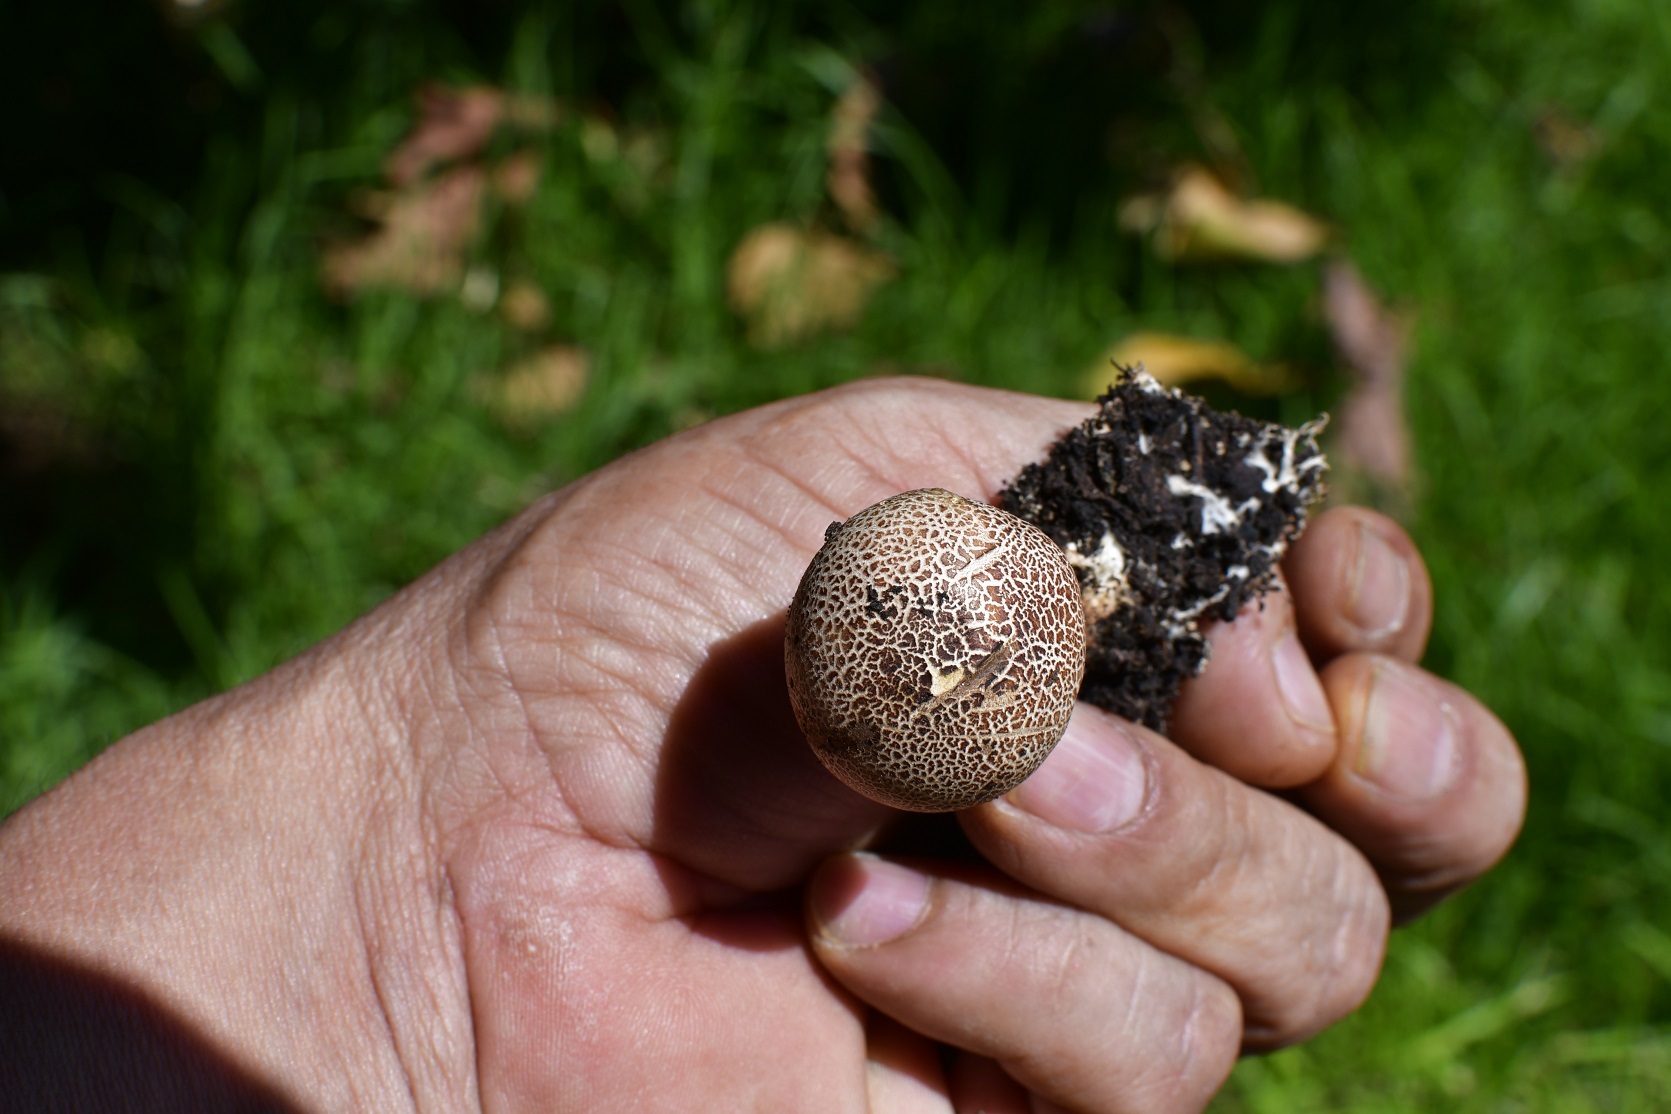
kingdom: Fungi
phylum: Basidiomycota
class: Agaricomycetes
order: Boletales
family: Sclerodermataceae
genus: Scleroderma
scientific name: Scleroderma areolatum
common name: Leopard earthball
